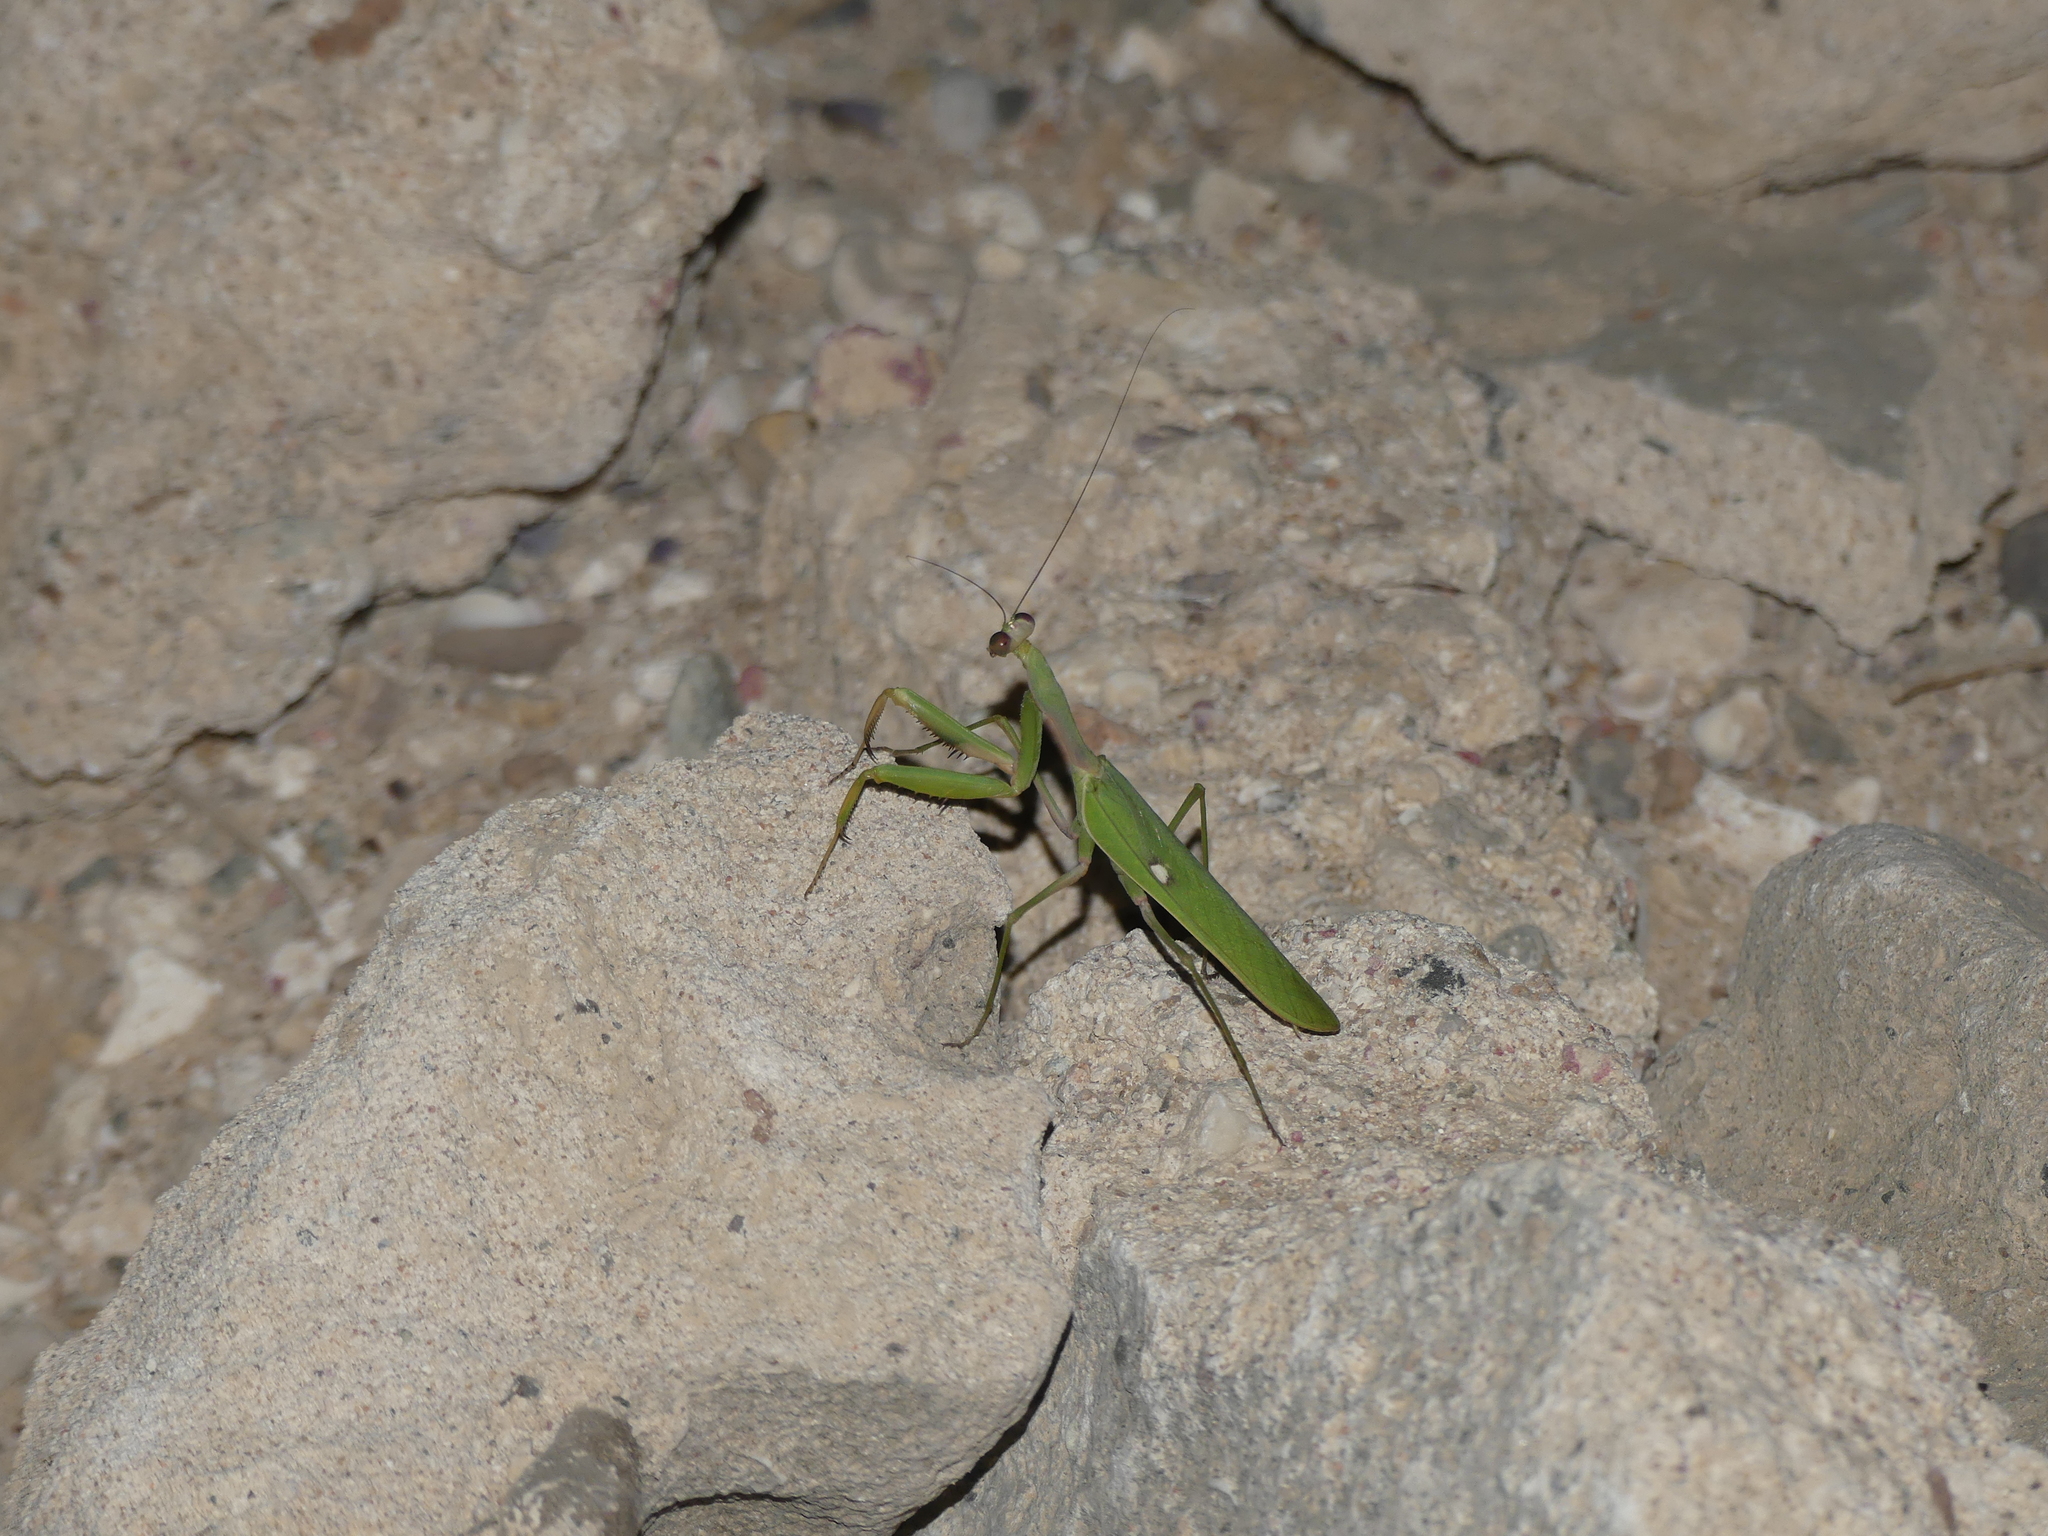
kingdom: Animalia
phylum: Arthropoda
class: Insecta
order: Mantodea
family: Mantidae
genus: Sphodromantis
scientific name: Sphodromantis viridis
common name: Giant african mantis
